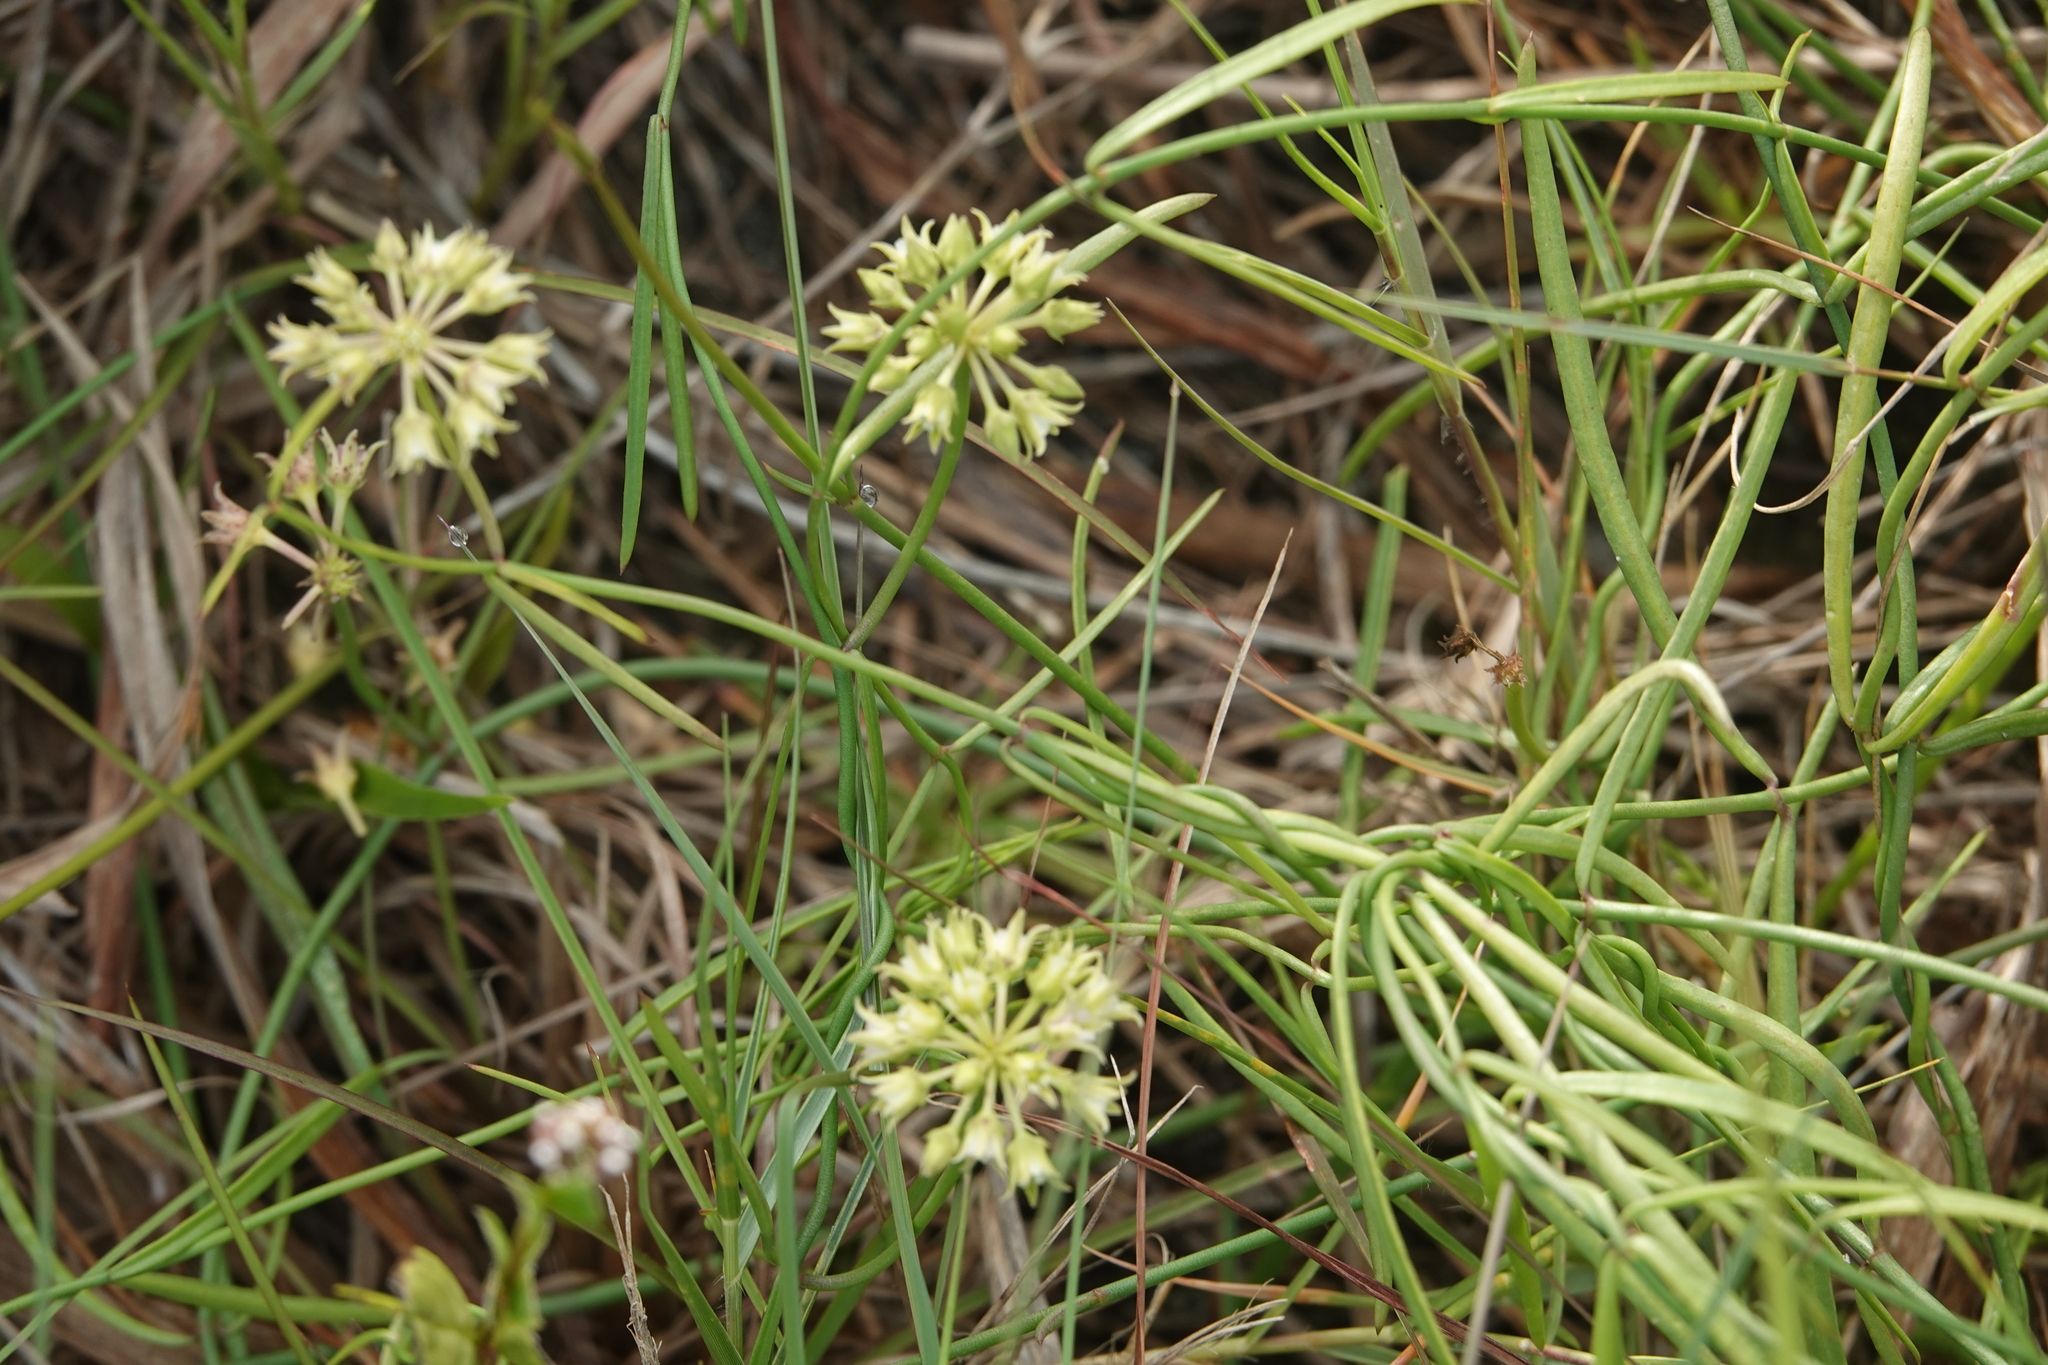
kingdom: Plantae
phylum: Tracheophyta
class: Magnoliopsida
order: Gentianales
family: Apocynaceae
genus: Pattalias
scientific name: Pattalias
